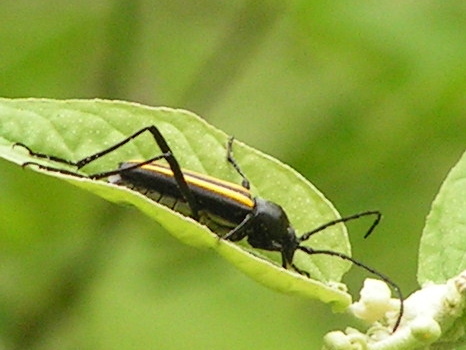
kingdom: Animalia
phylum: Arthropoda
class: Insecta
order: Coleoptera
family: Cerambycidae
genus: Lophalia
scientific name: Lophalia prolata
